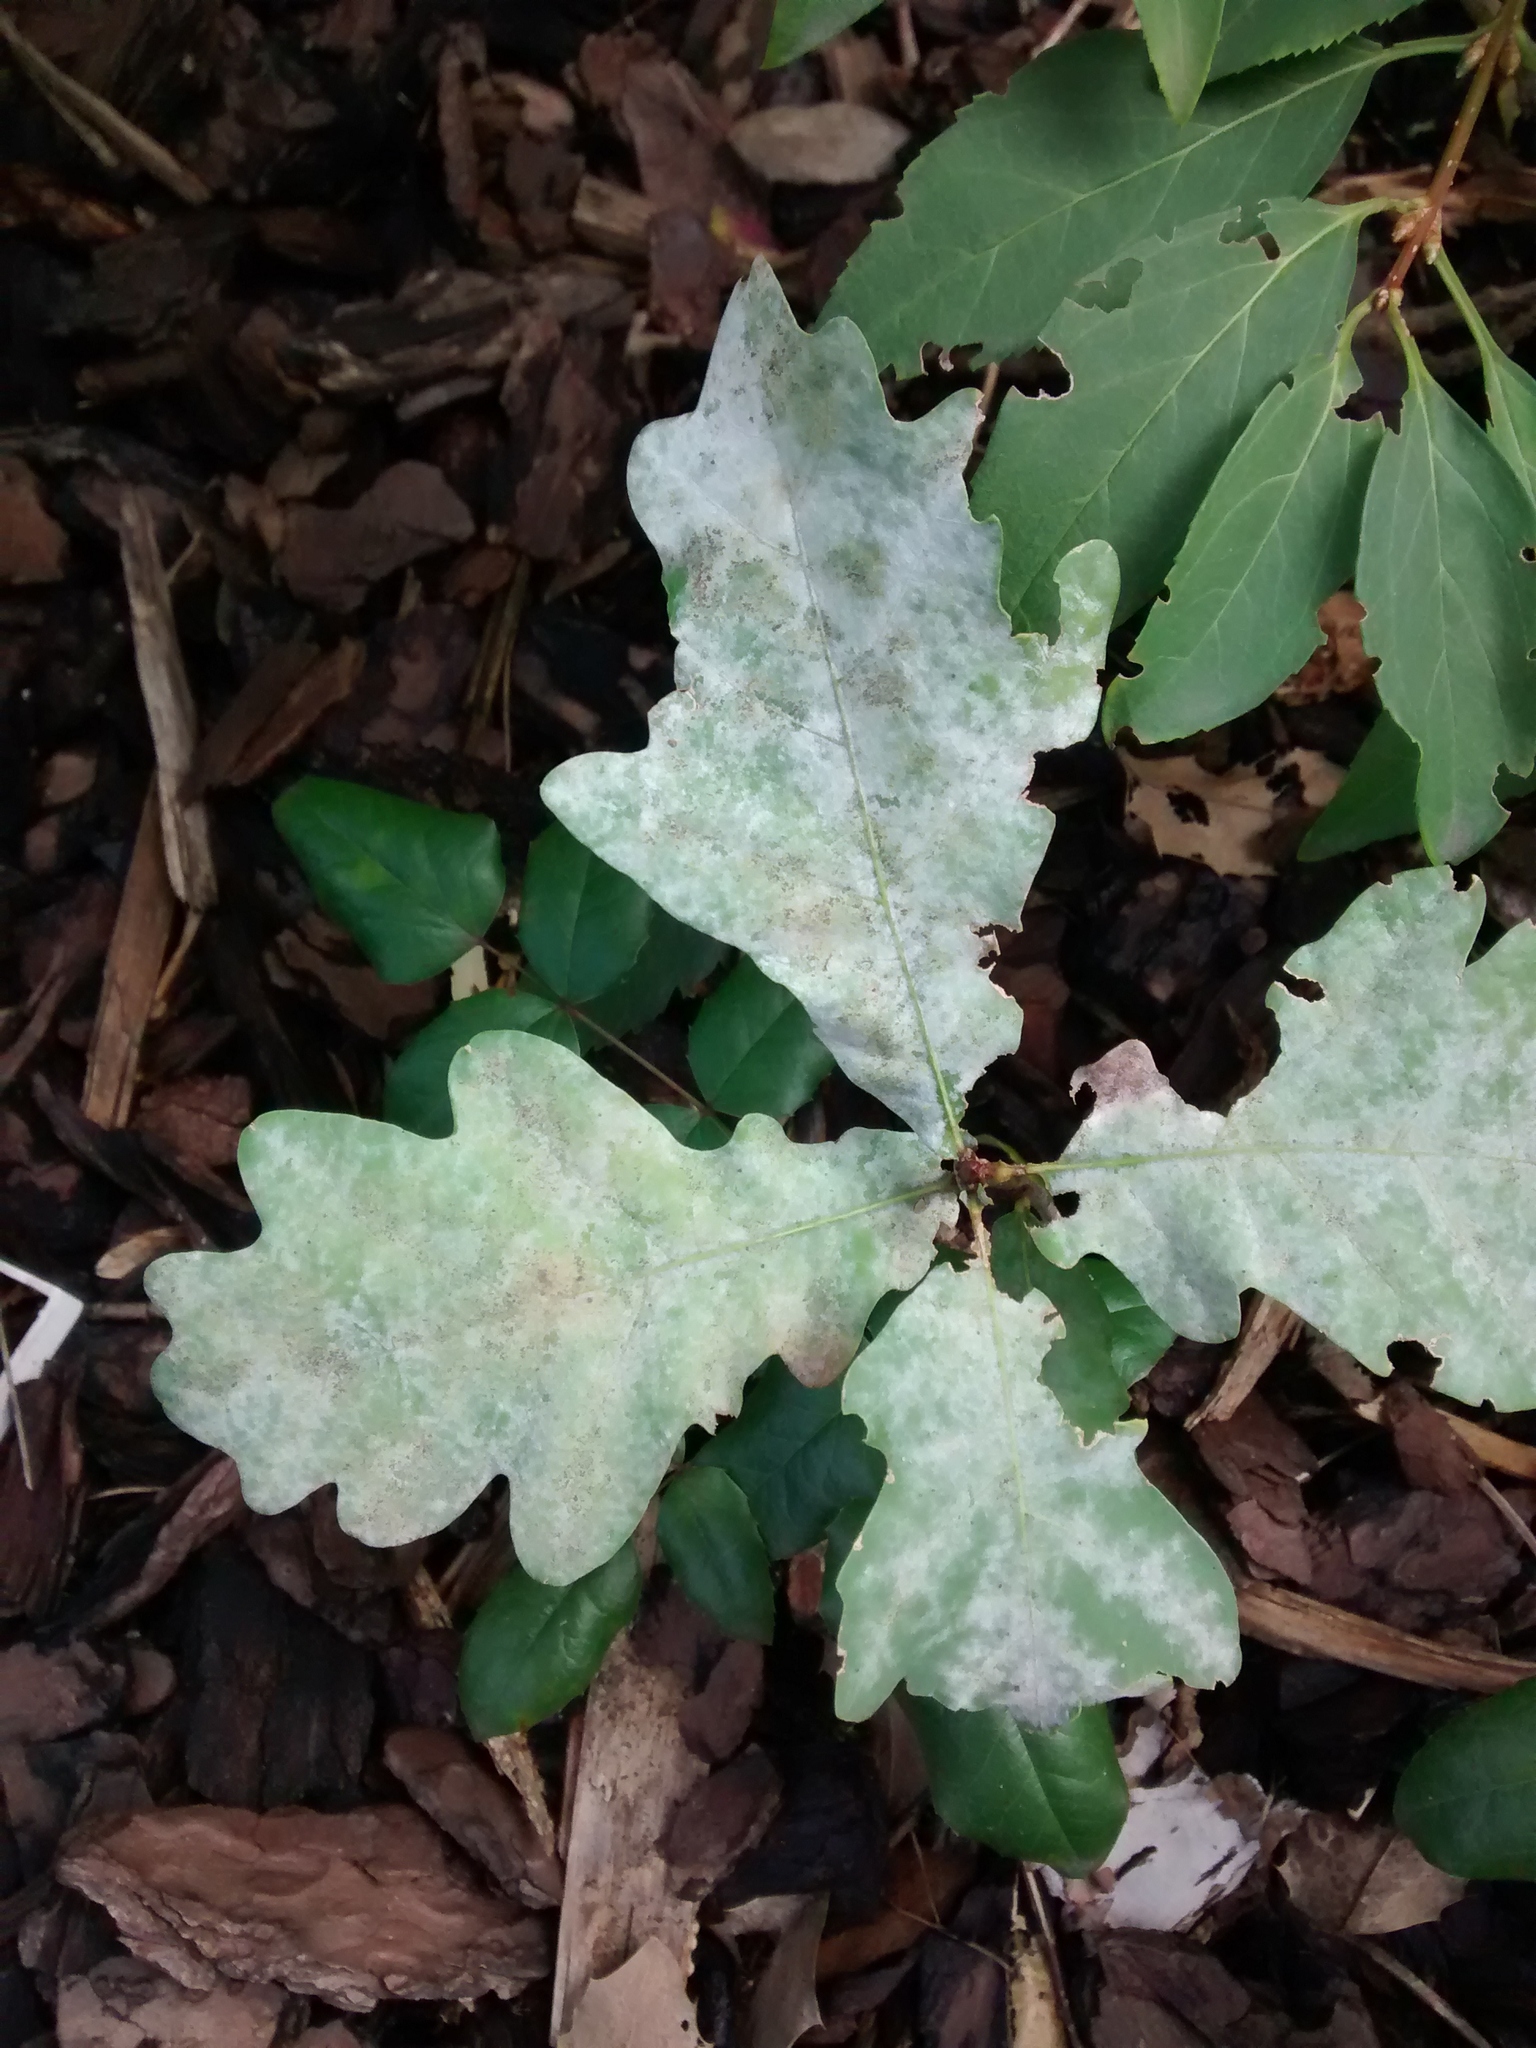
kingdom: Plantae
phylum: Tracheophyta
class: Magnoliopsida
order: Fagales
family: Fagaceae
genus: Quercus
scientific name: Quercus robur
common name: Pedunculate oak
